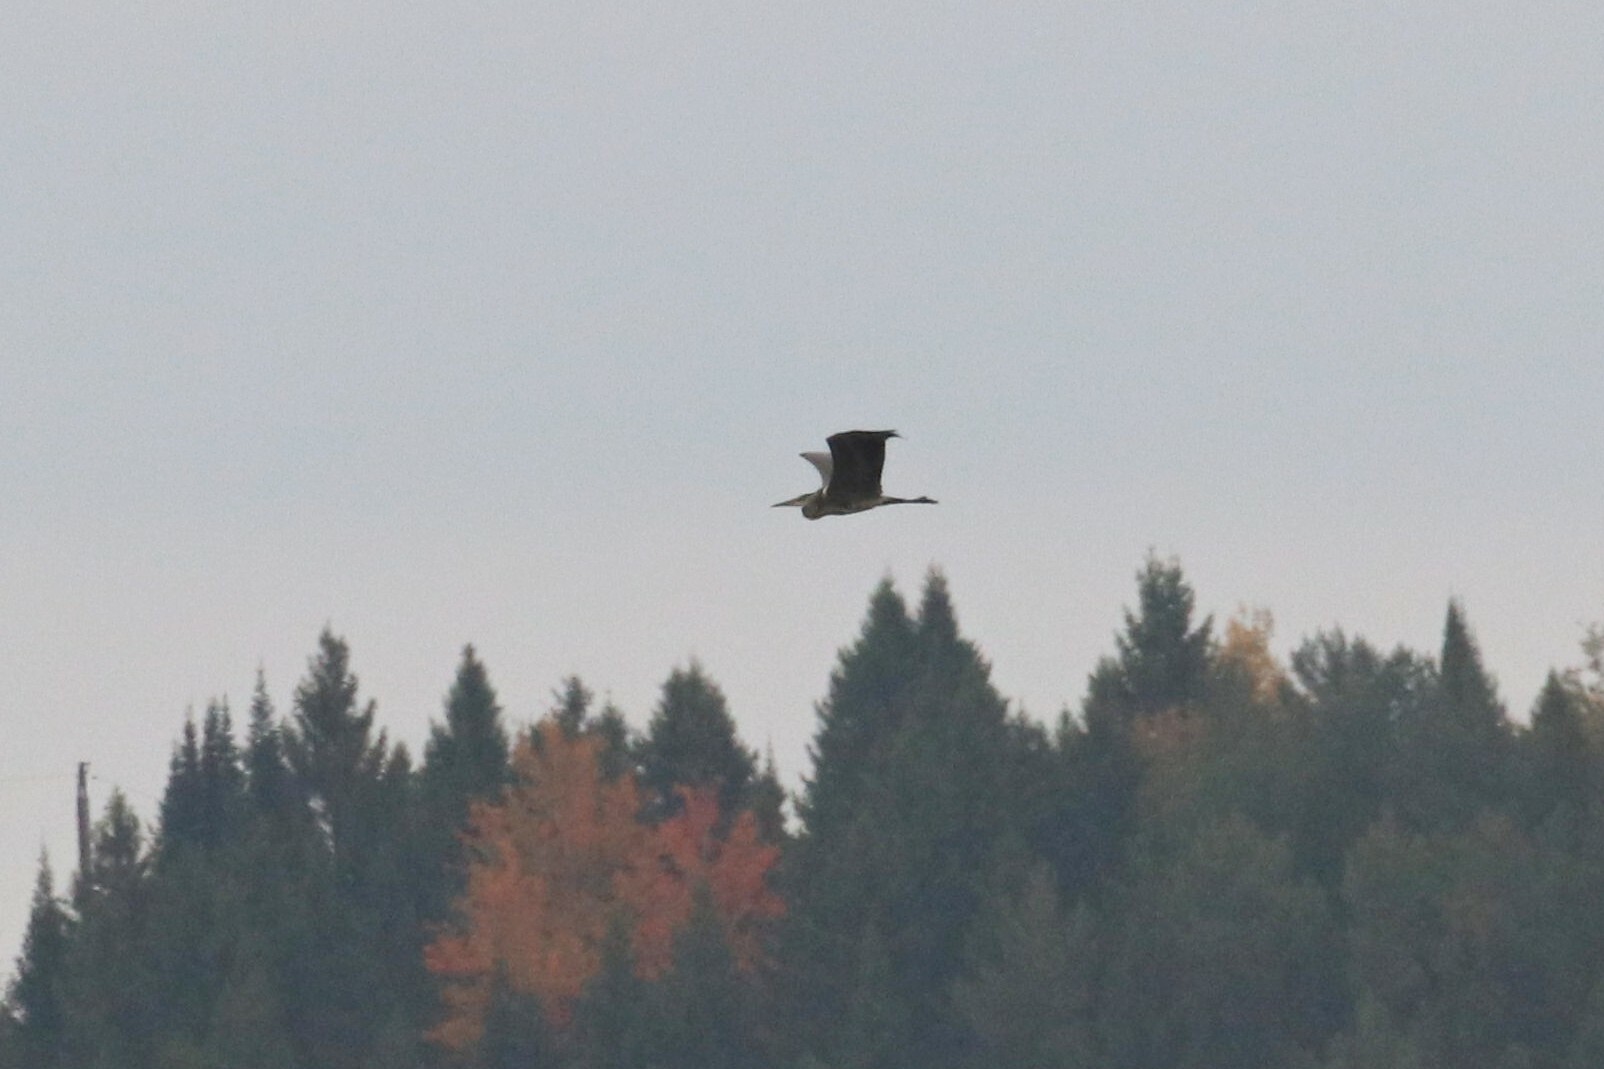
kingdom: Animalia
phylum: Chordata
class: Aves
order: Pelecaniformes
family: Ardeidae
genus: Ardea
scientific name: Ardea cinerea
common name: Grey heron
